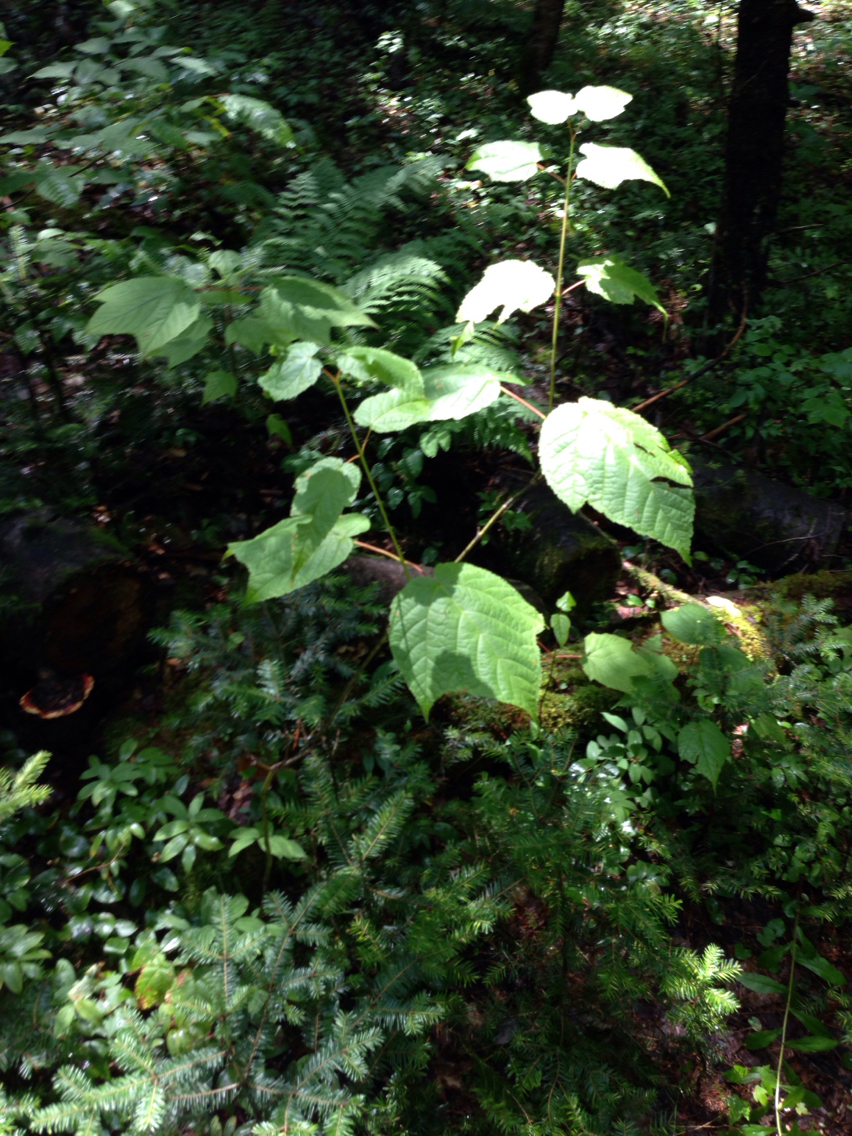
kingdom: Plantae
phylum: Tracheophyta
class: Magnoliopsida
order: Sapindales
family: Sapindaceae
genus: Acer
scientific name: Acer pensylvanicum
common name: Moosewood
